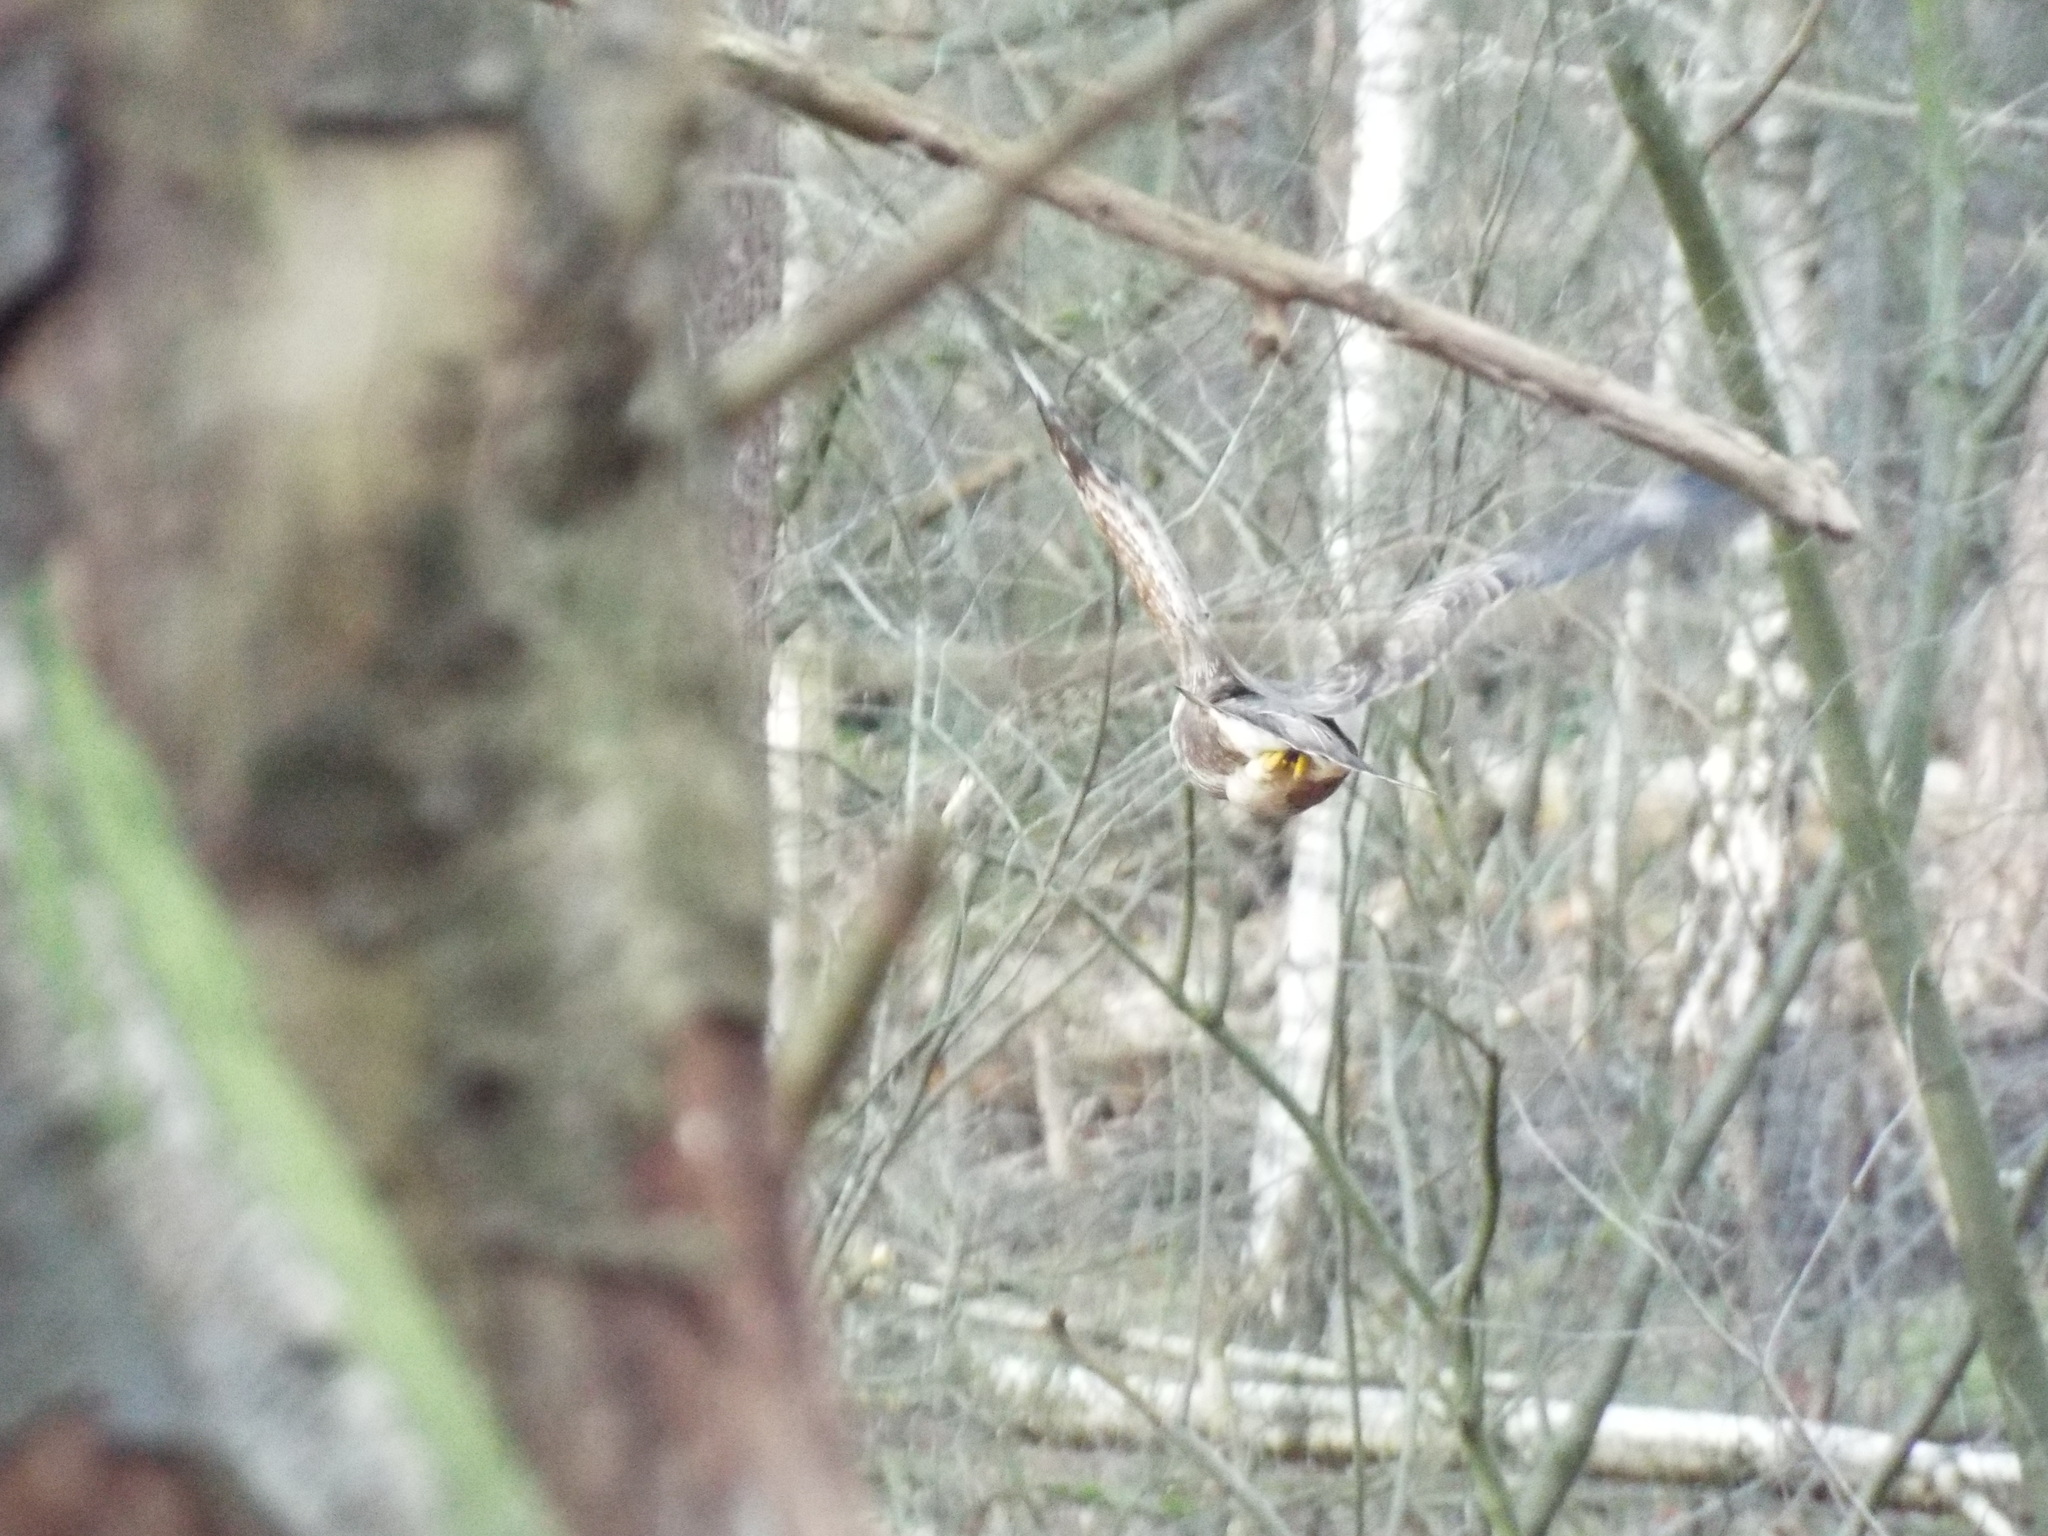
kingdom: Animalia
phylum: Chordata
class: Aves
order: Accipitriformes
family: Accipitridae
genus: Buteo
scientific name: Buteo buteo
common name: Common buzzard
